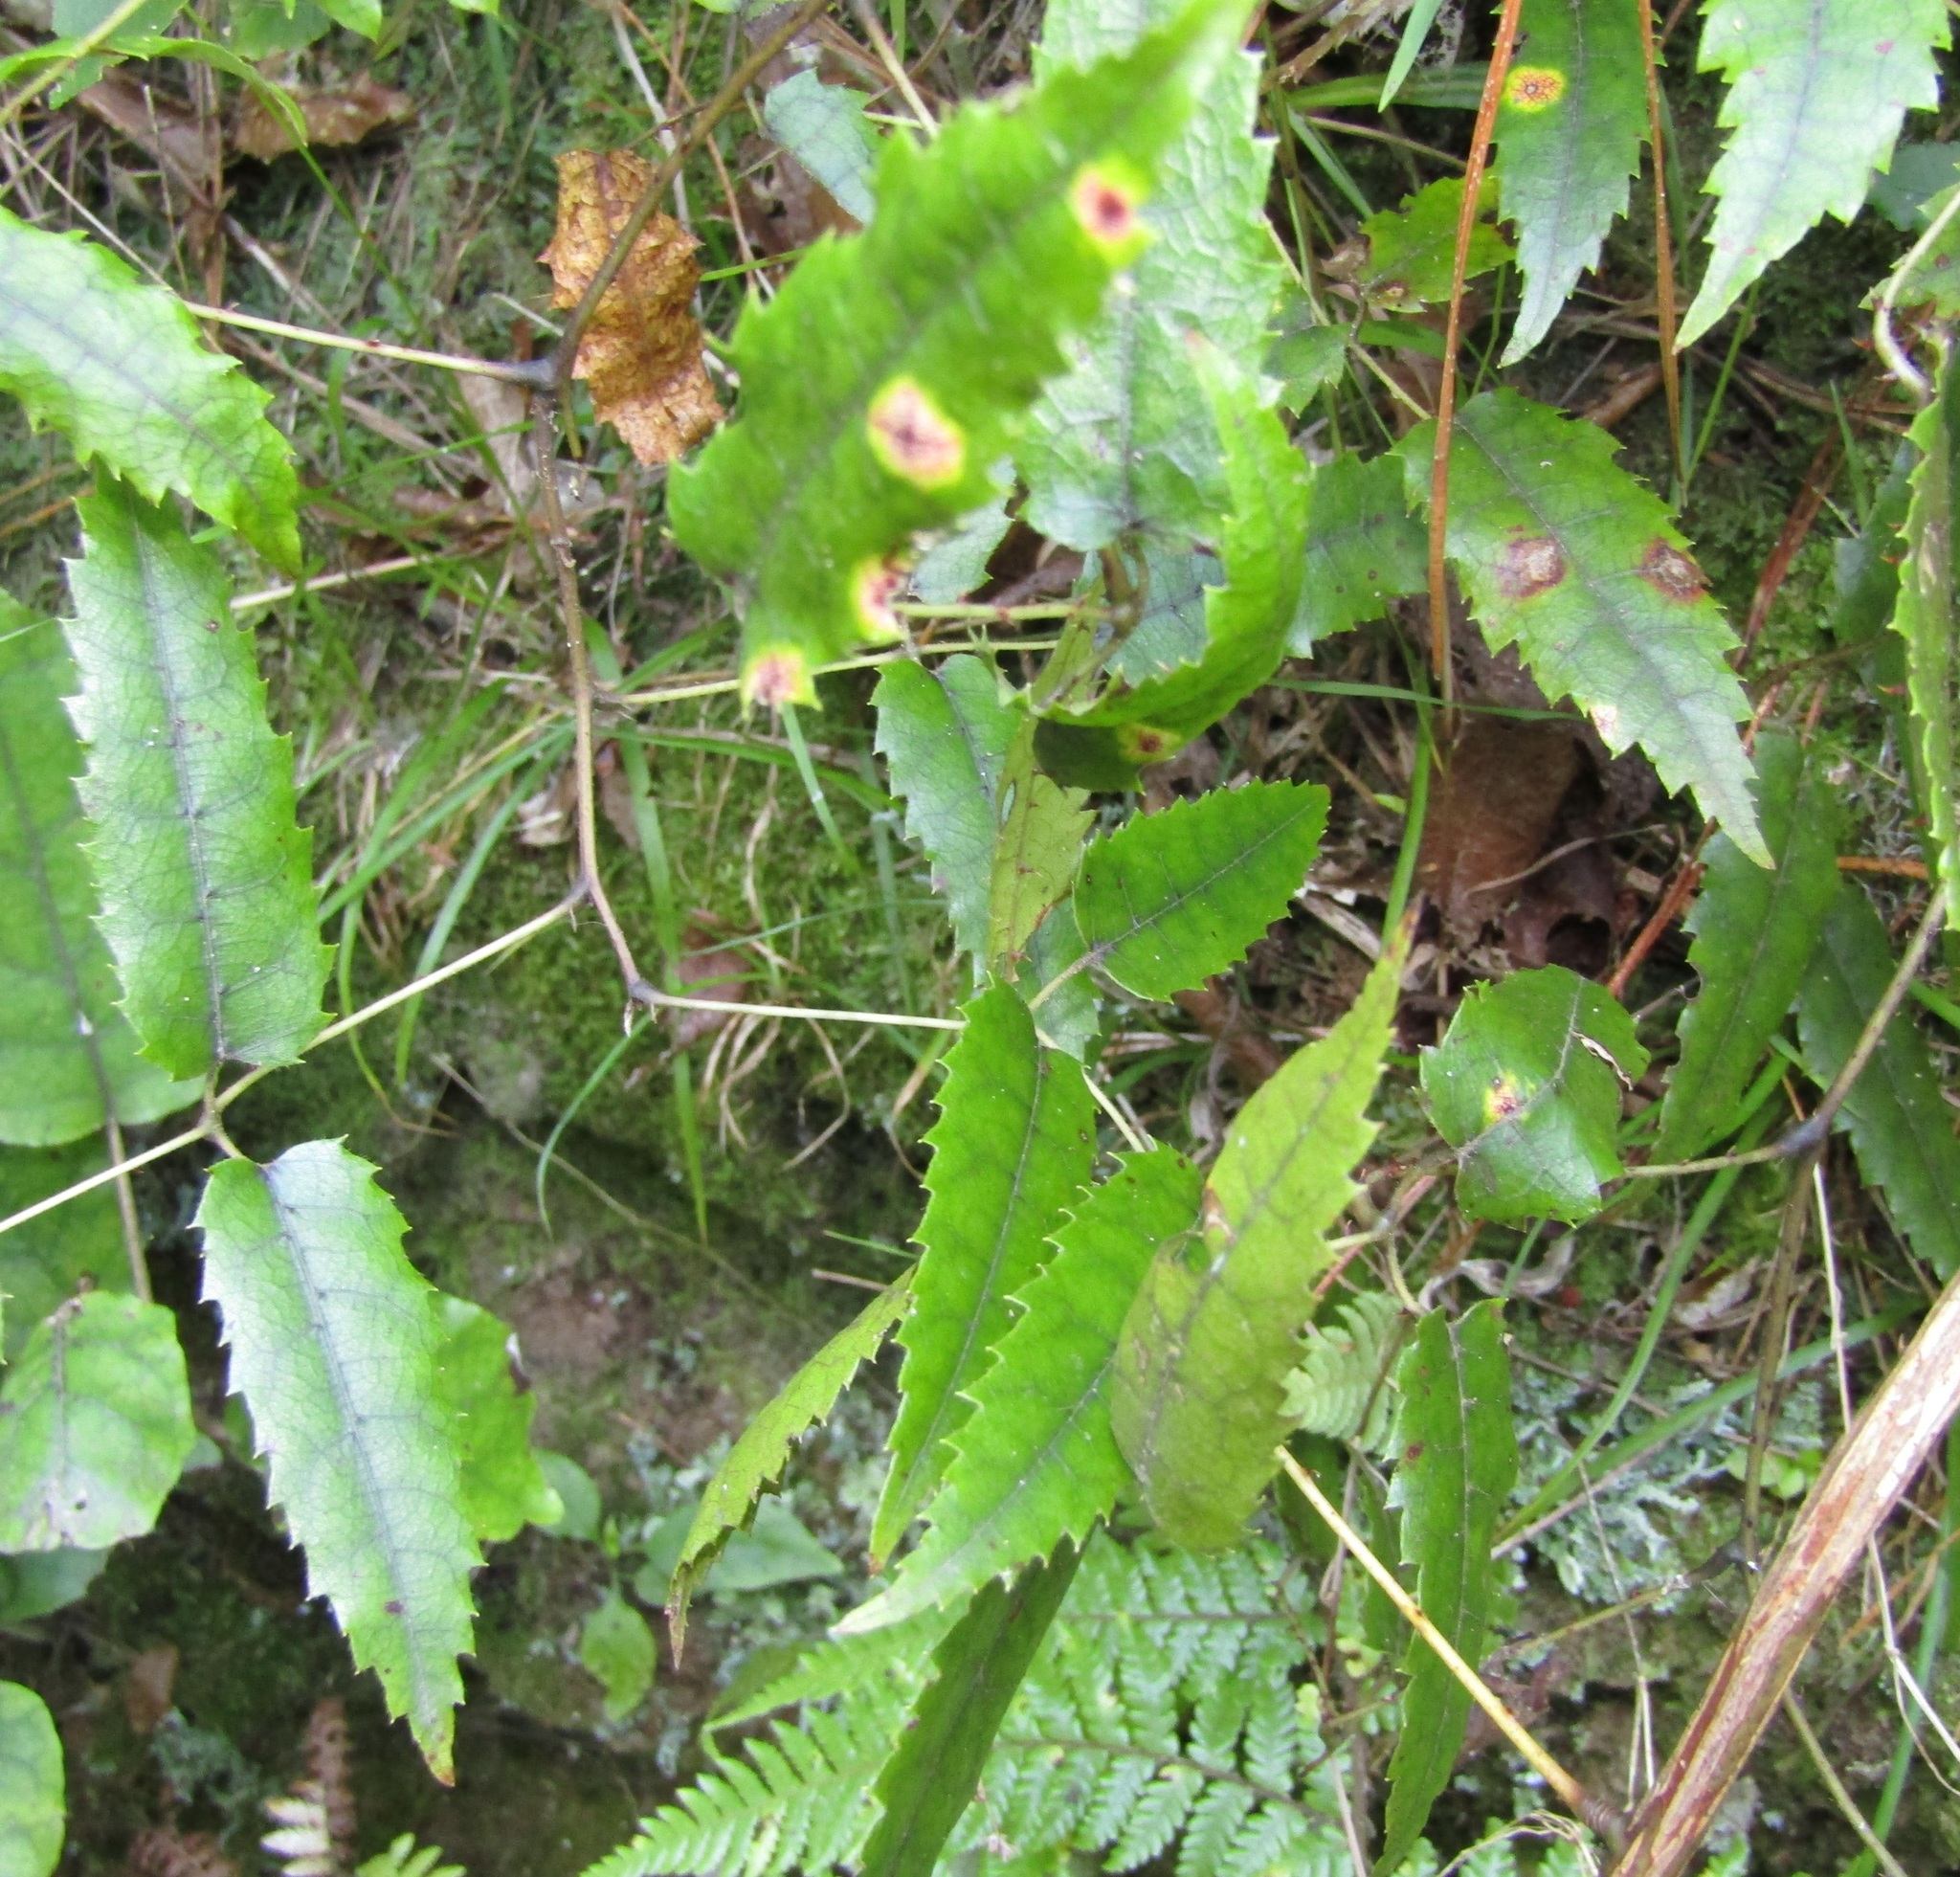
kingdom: Plantae
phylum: Tracheophyta
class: Magnoliopsida
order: Rosales
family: Rosaceae
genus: Rubus
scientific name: Rubus cissoides
